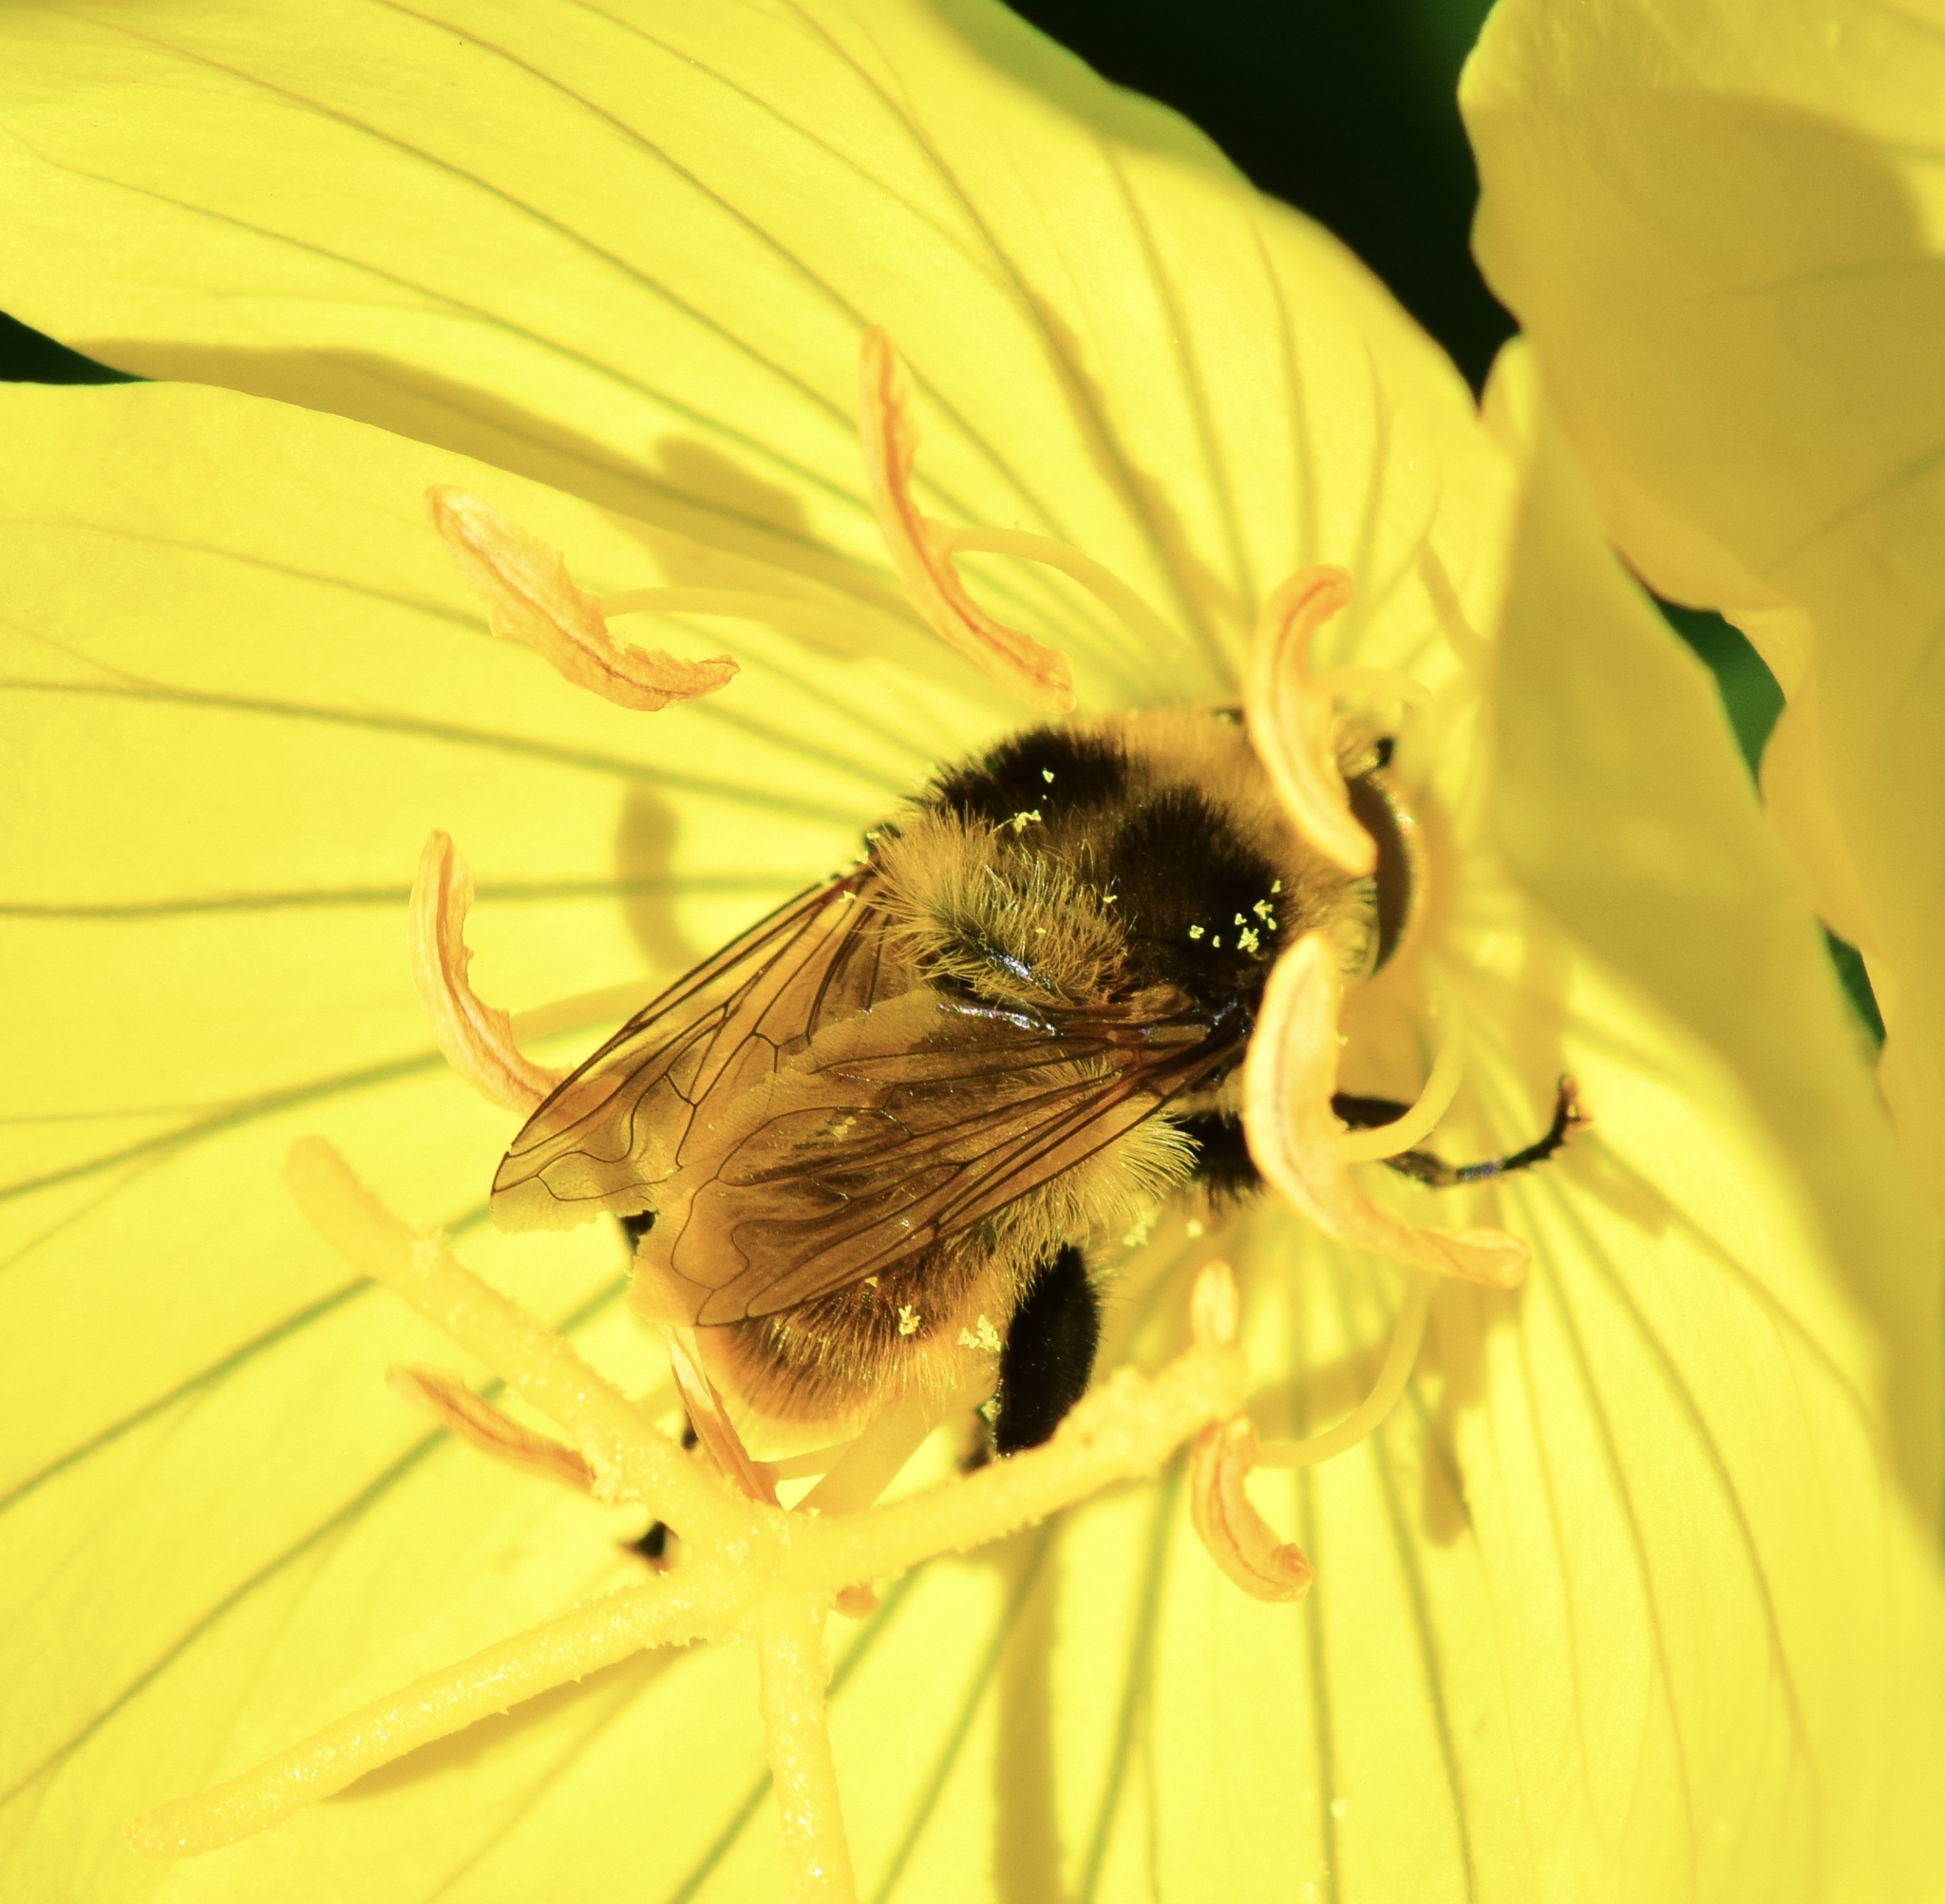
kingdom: Animalia
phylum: Arthropoda
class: Insecta
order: Diptera
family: Syrphidae
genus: Merodon
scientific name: Merodon equestris
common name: Greater bulb-fly
